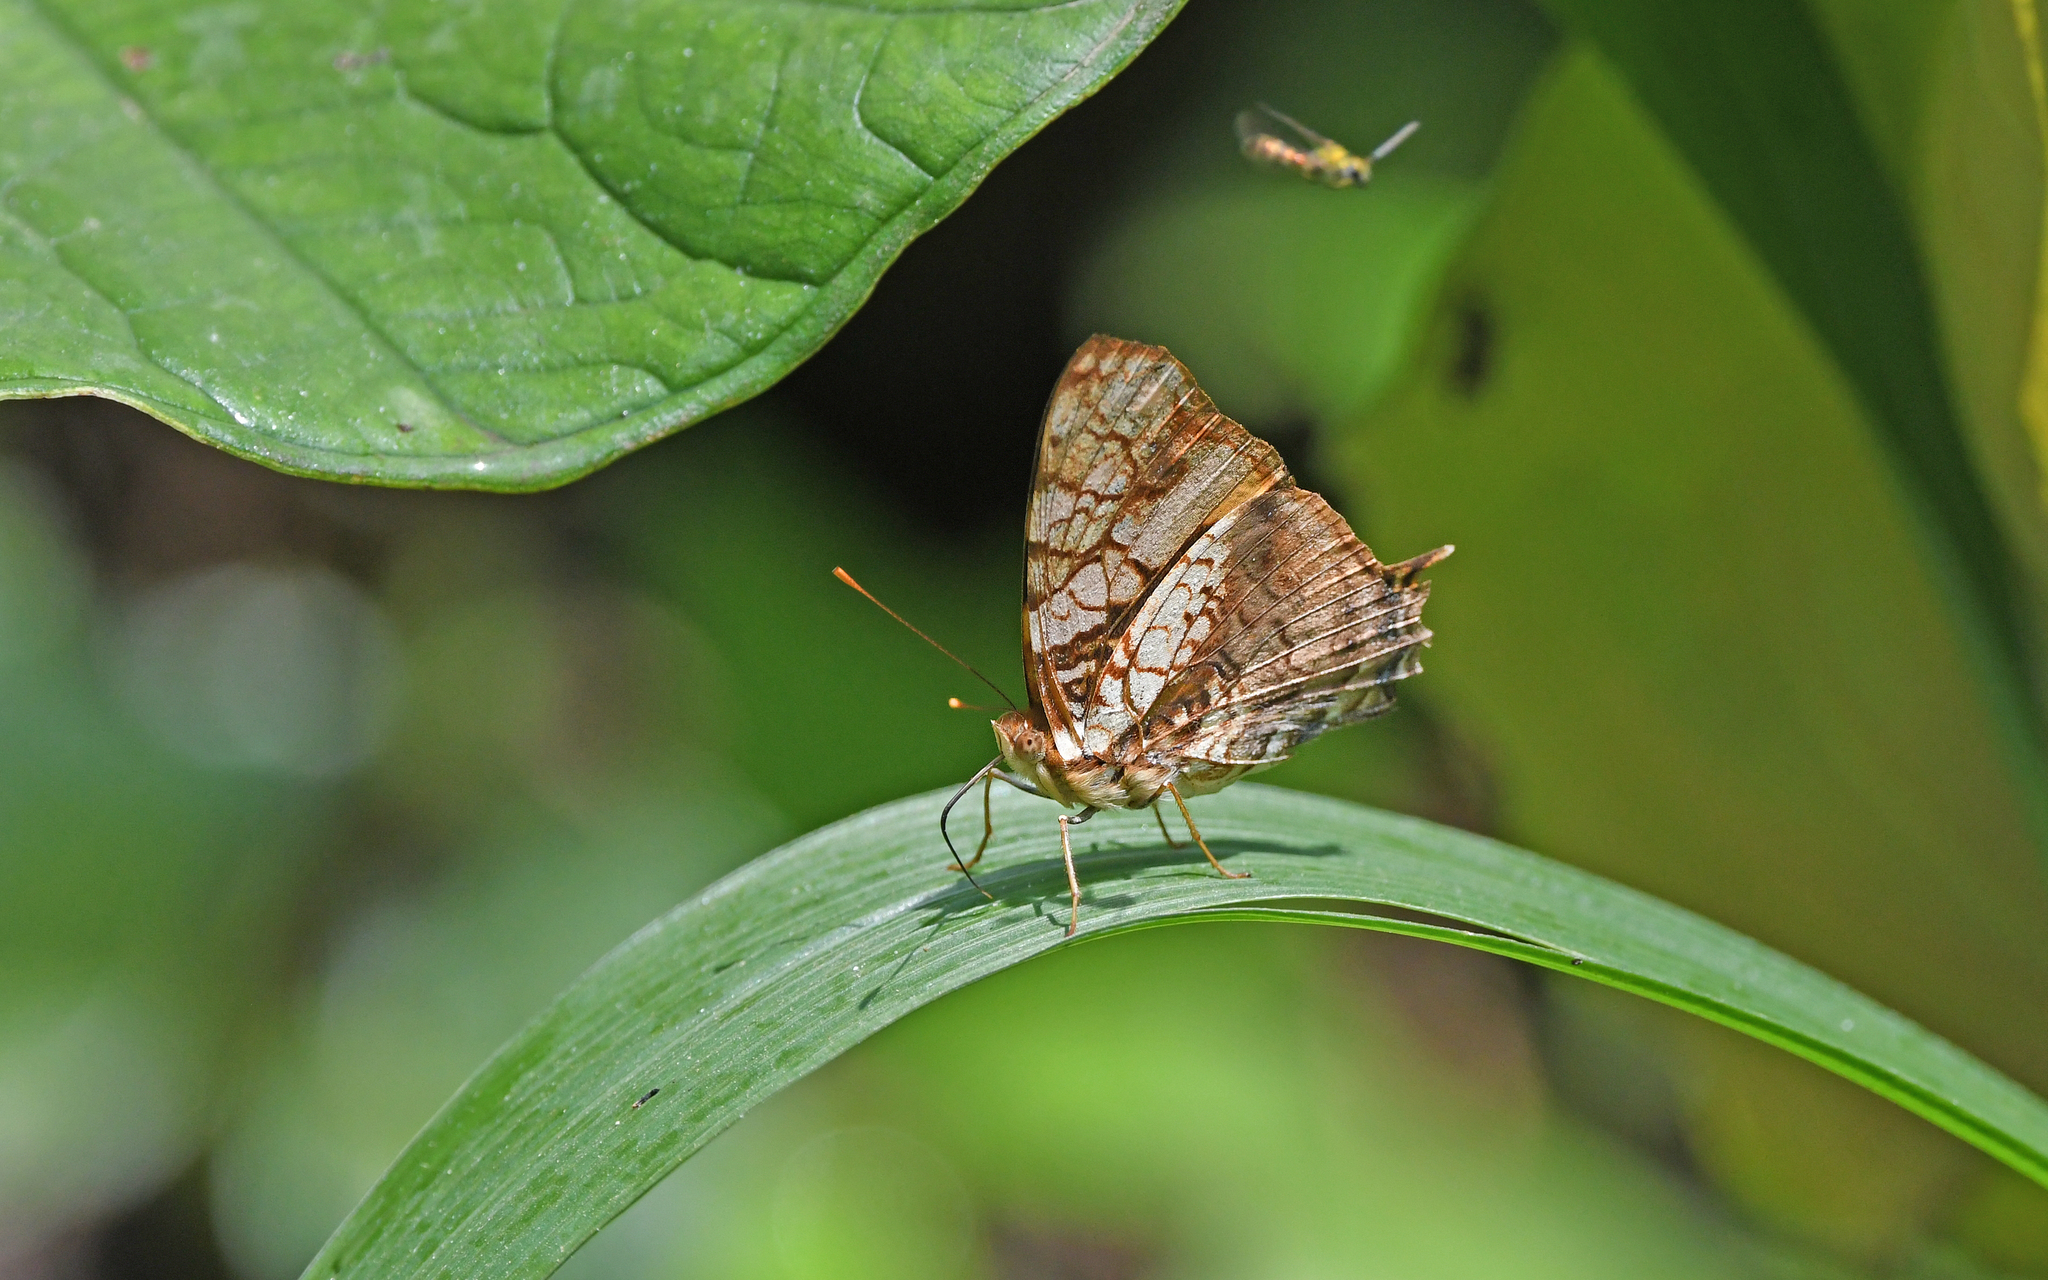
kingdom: Animalia
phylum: Arthropoda
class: Insecta
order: Lepidoptera
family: Nymphalidae
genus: Hypanartia
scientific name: Hypanartia lethe
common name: Orange mapwing
